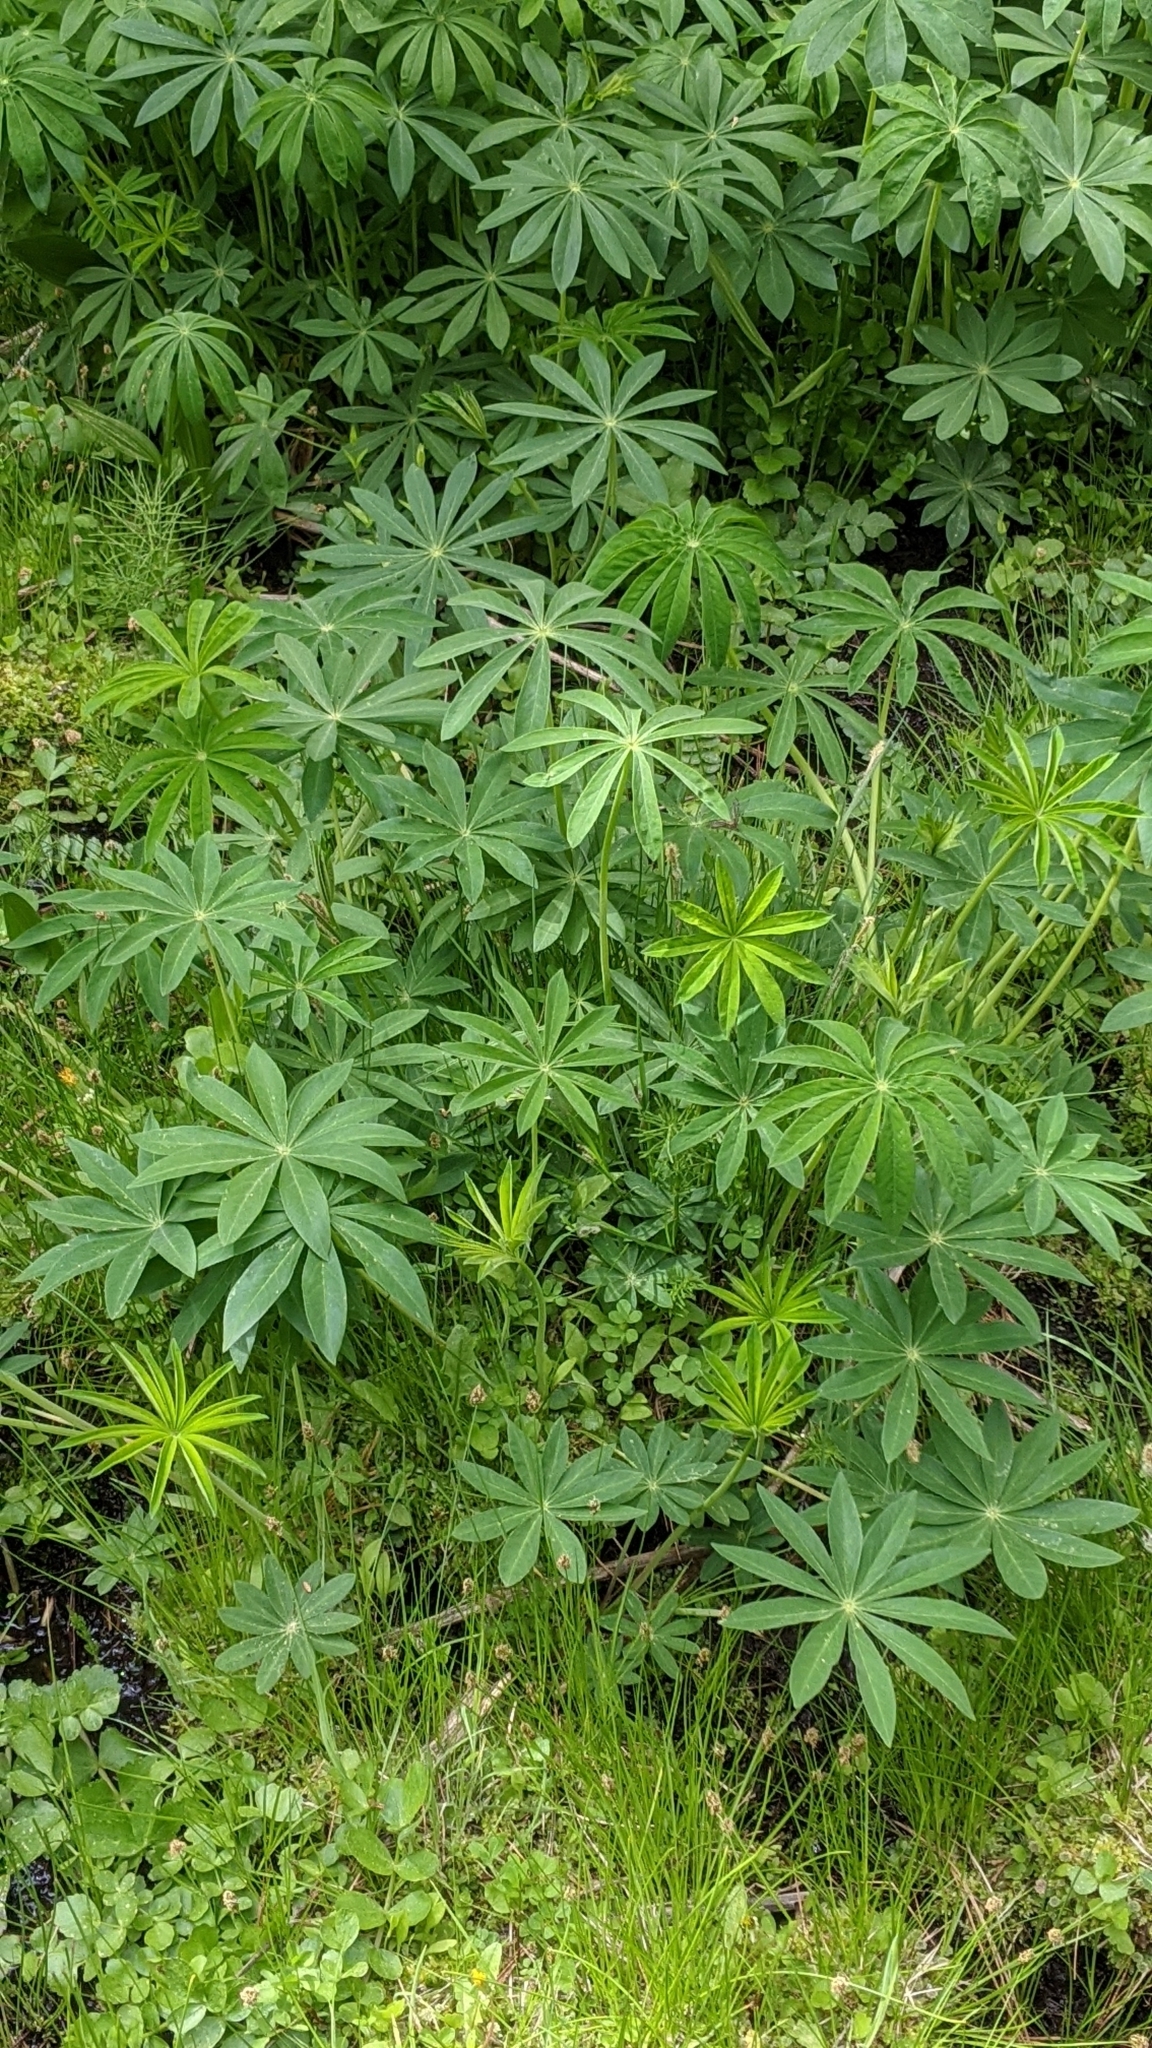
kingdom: Plantae
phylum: Tracheophyta
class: Magnoliopsida
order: Fabales
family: Fabaceae
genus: Lupinus
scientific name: Lupinus polyphyllus
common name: Garden lupin
